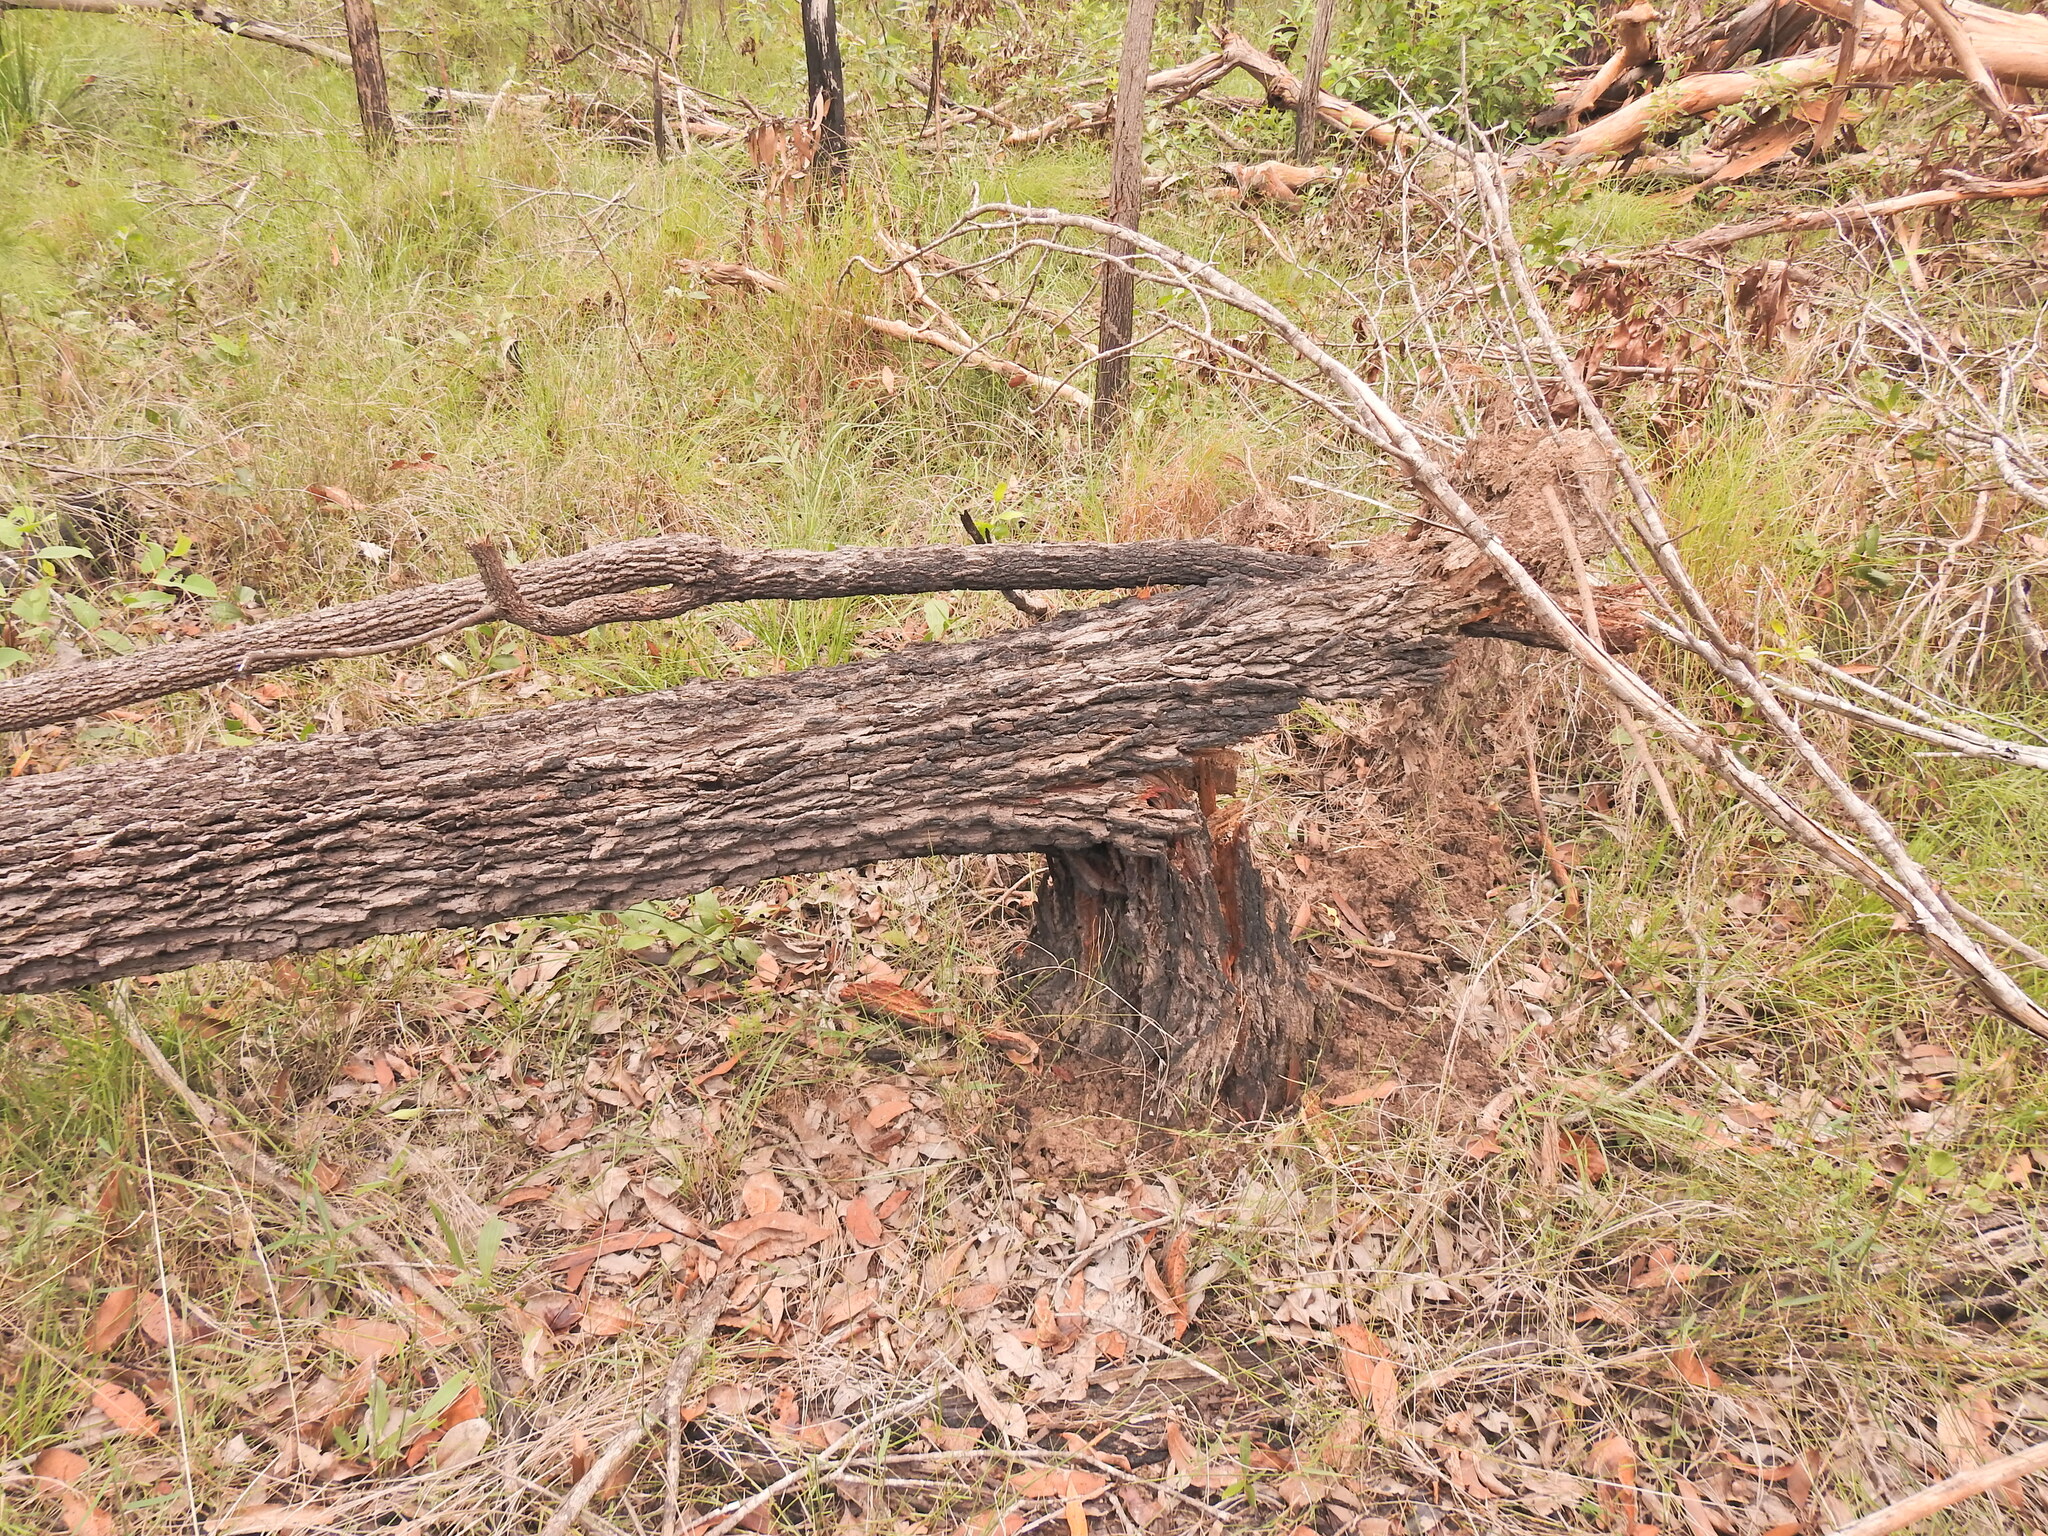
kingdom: Plantae
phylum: Tracheophyta
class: Magnoliopsida
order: Fagales
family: Casuarinaceae
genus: Allocasuarina
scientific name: Allocasuarina littoralis
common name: Black she-oak
